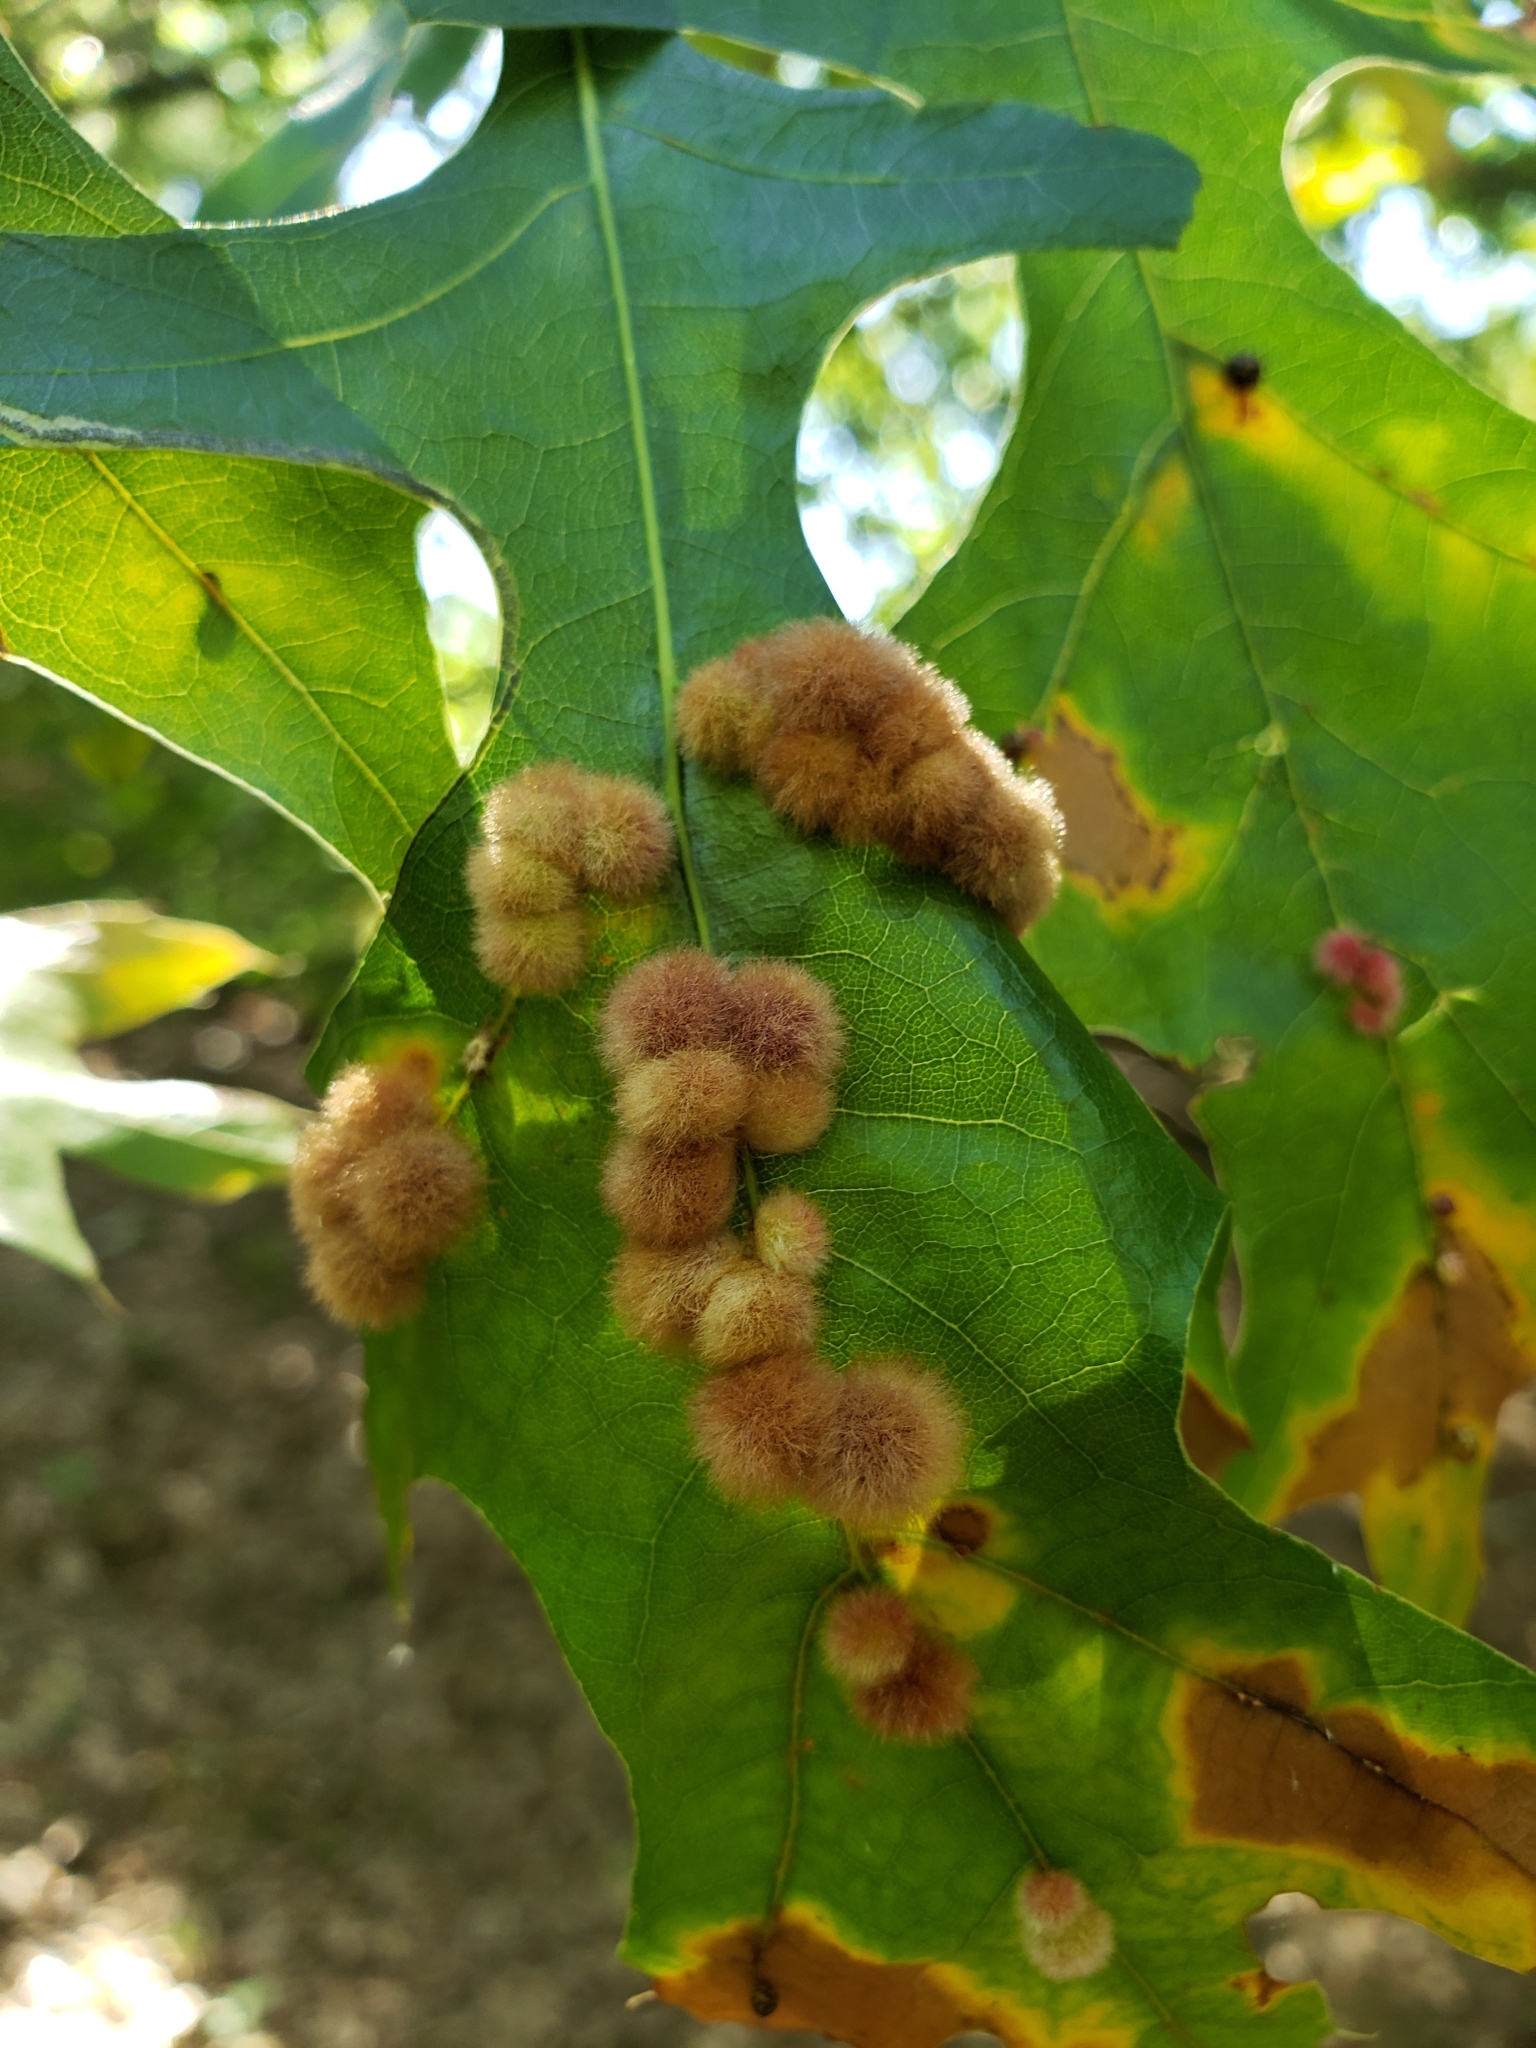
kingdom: Animalia
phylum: Arthropoda
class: Insecta
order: Hymenoptera
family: Cynipidae
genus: Callirhytis
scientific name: Callirhytis
